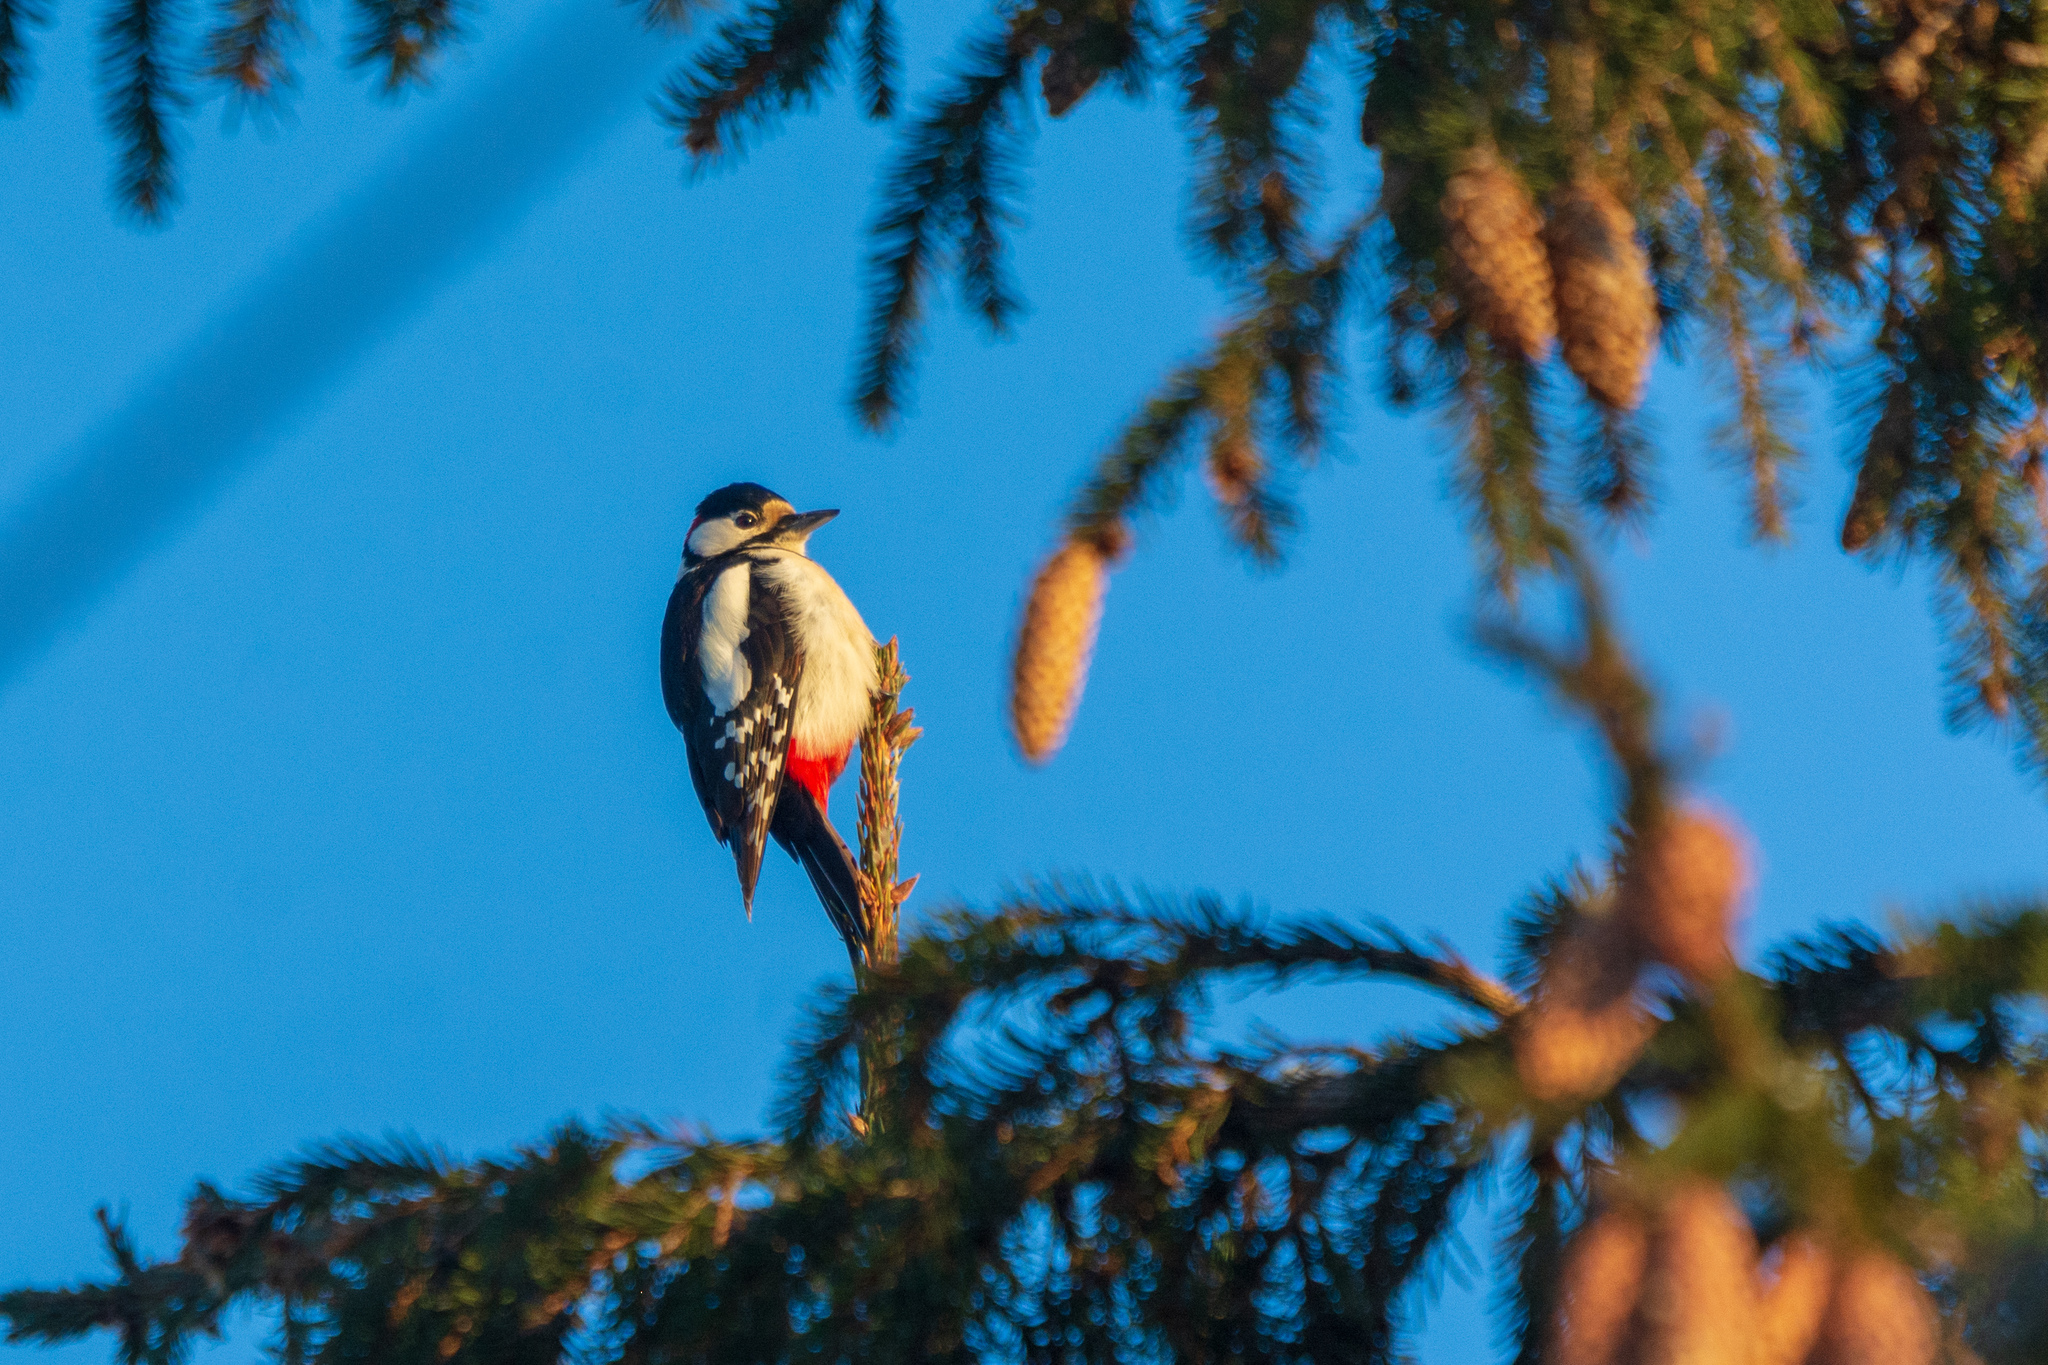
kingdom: Animalia
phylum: Chordata
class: Aves
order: Piciformes
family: Picidae
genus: Dendrocopos
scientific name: Dendrocopos major
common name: Great spotted woodpecker
